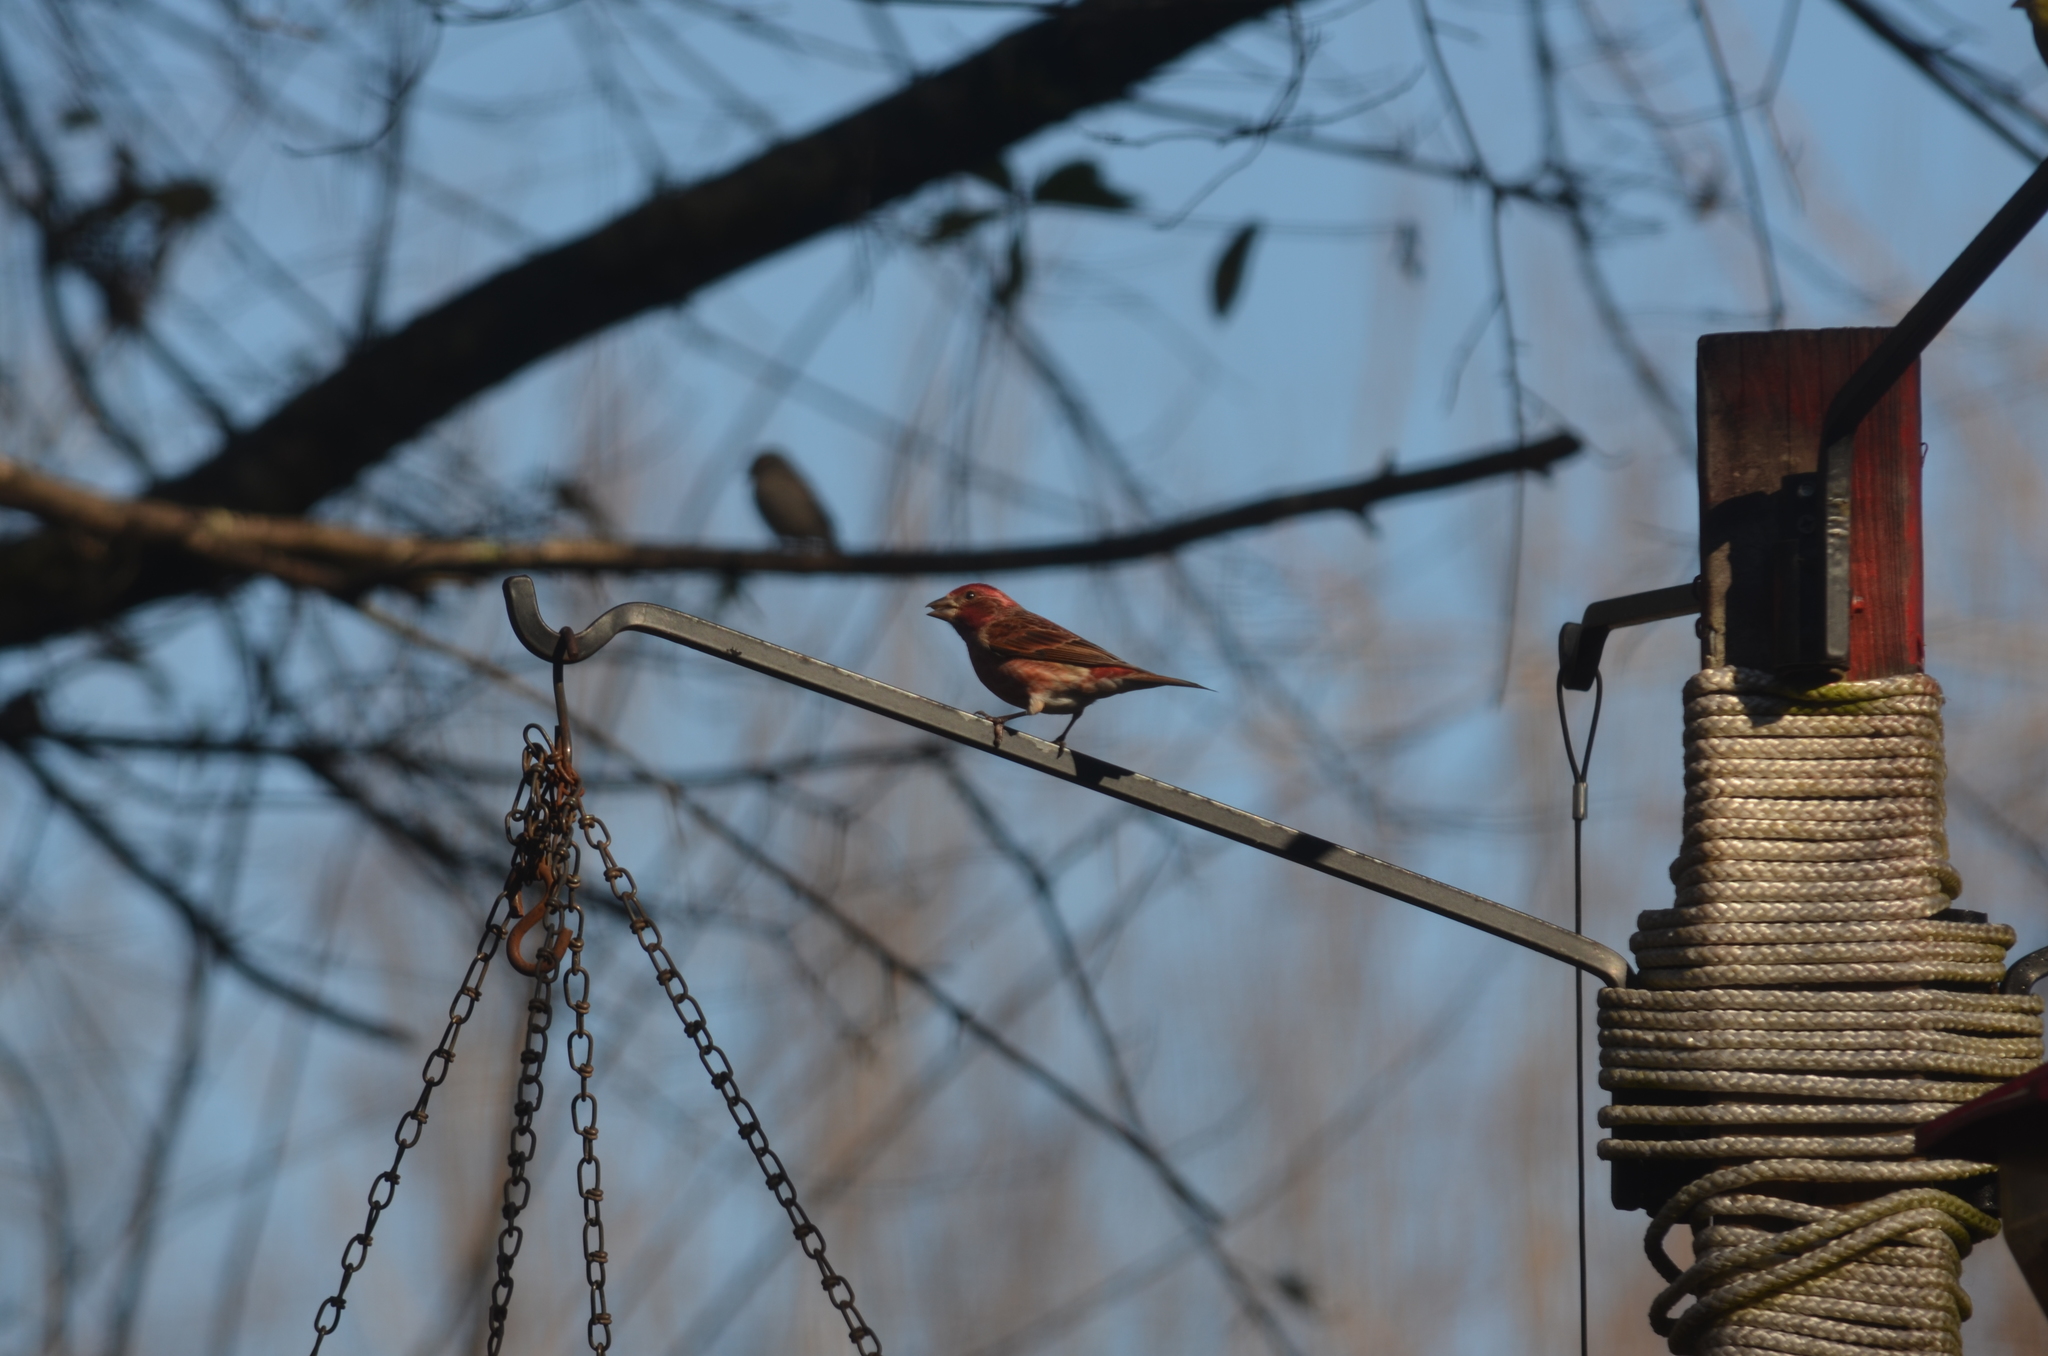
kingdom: Animalia
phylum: Chordata
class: Aves
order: Passeriformes
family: Fringillidae
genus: Haemorhous
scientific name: Haemorhous purpureus
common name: Purple finch
